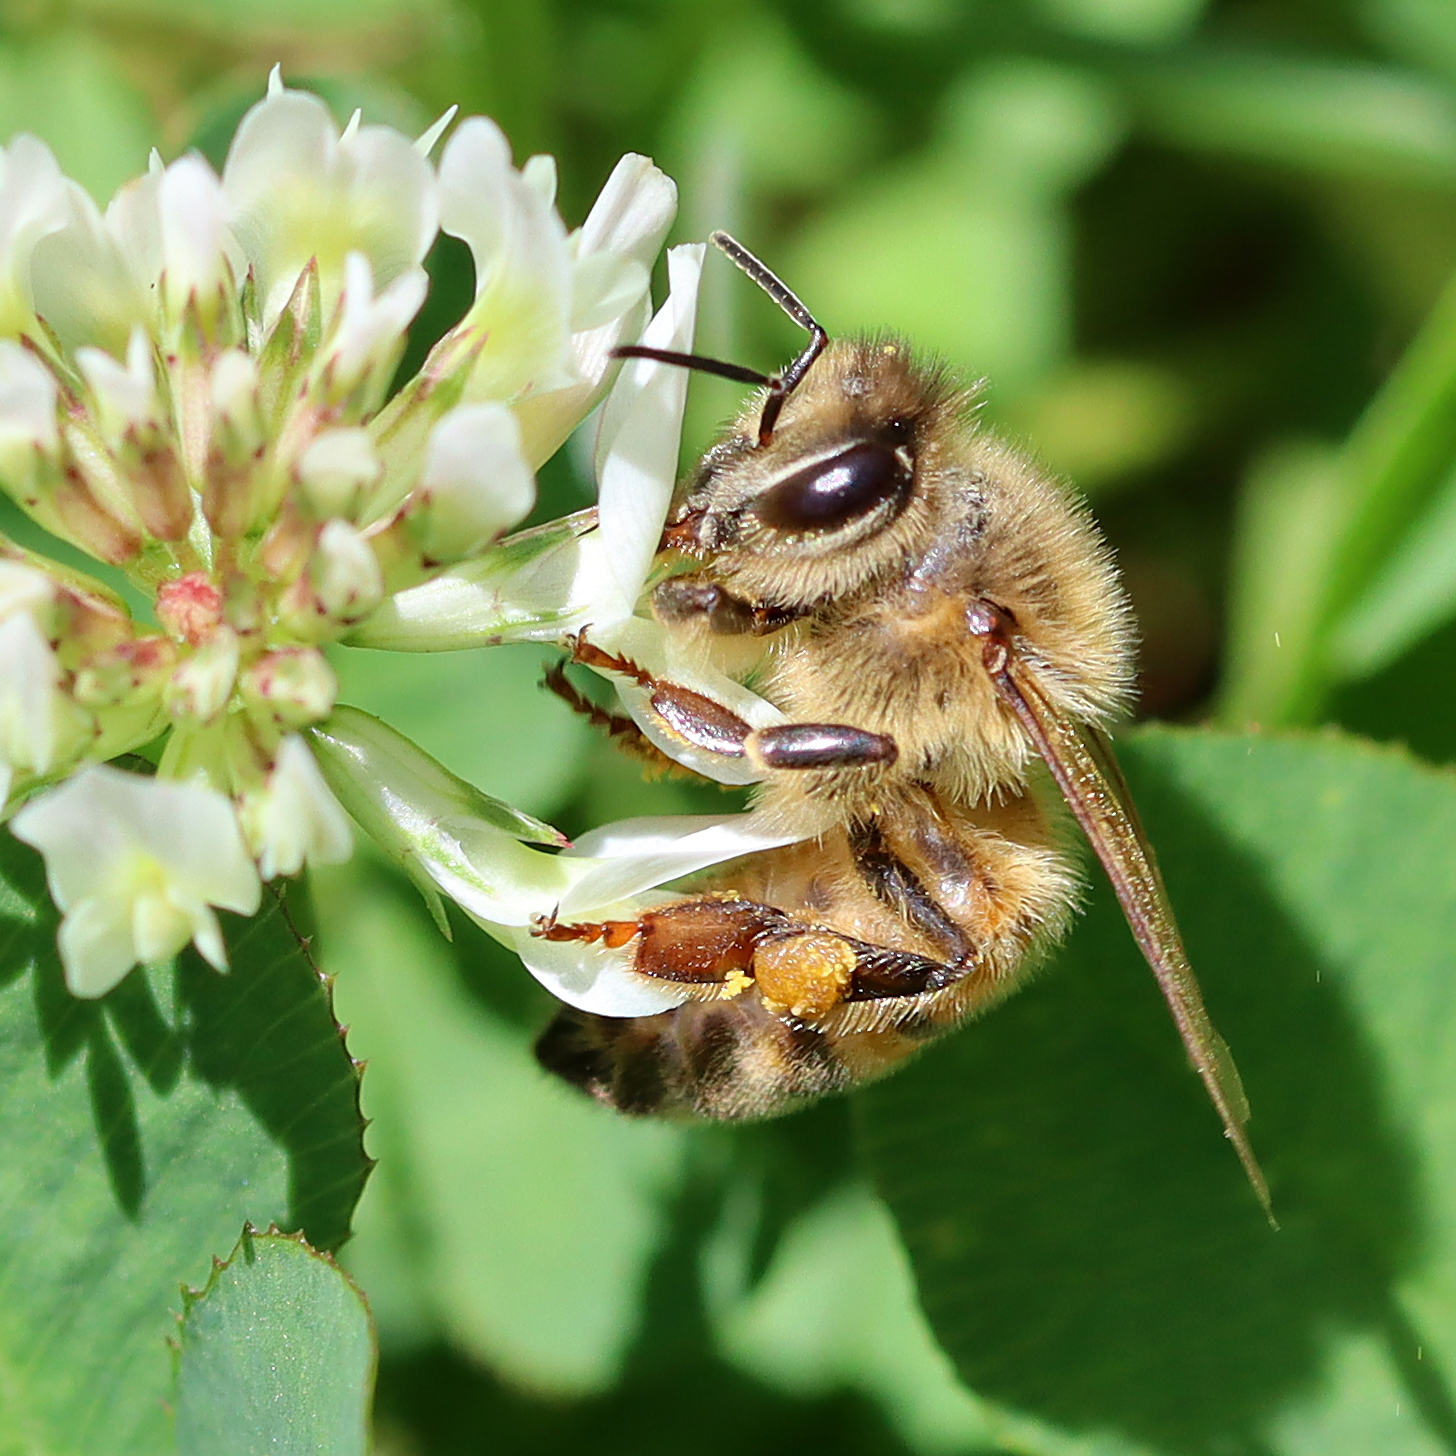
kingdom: Animalia
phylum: Arthropoda
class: Insecta
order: Hymenoptera
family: Apidae
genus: Apis
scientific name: Apis mellifera
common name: Honey bee
